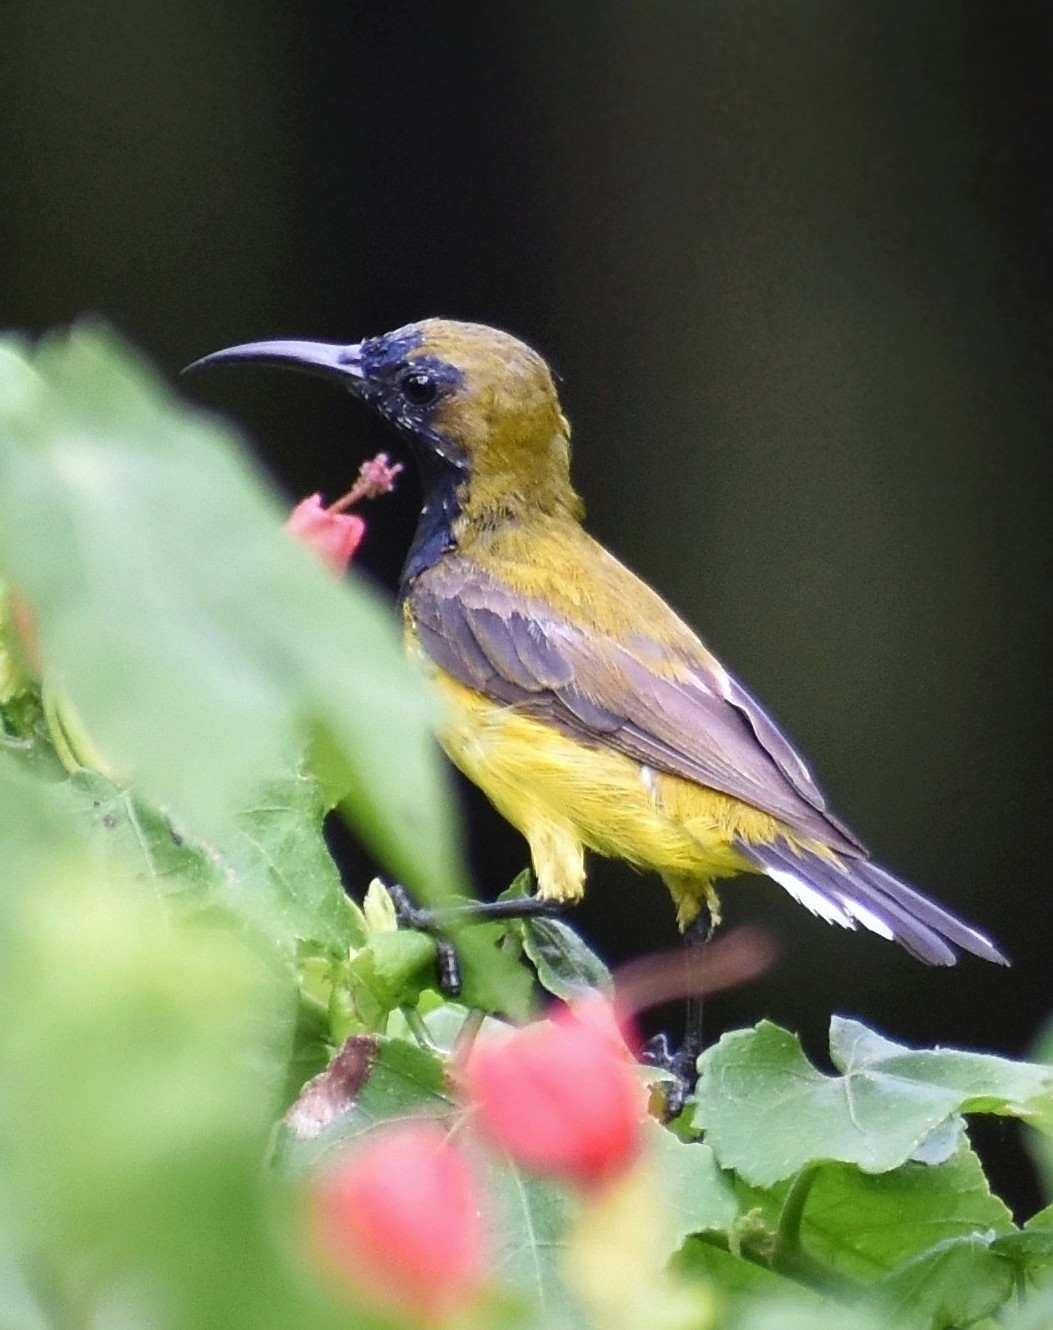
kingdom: Animalia
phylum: Chordata
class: Aves
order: Passeriformes
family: Nectariniidae
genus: Cinnyris
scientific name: Cinnyris
